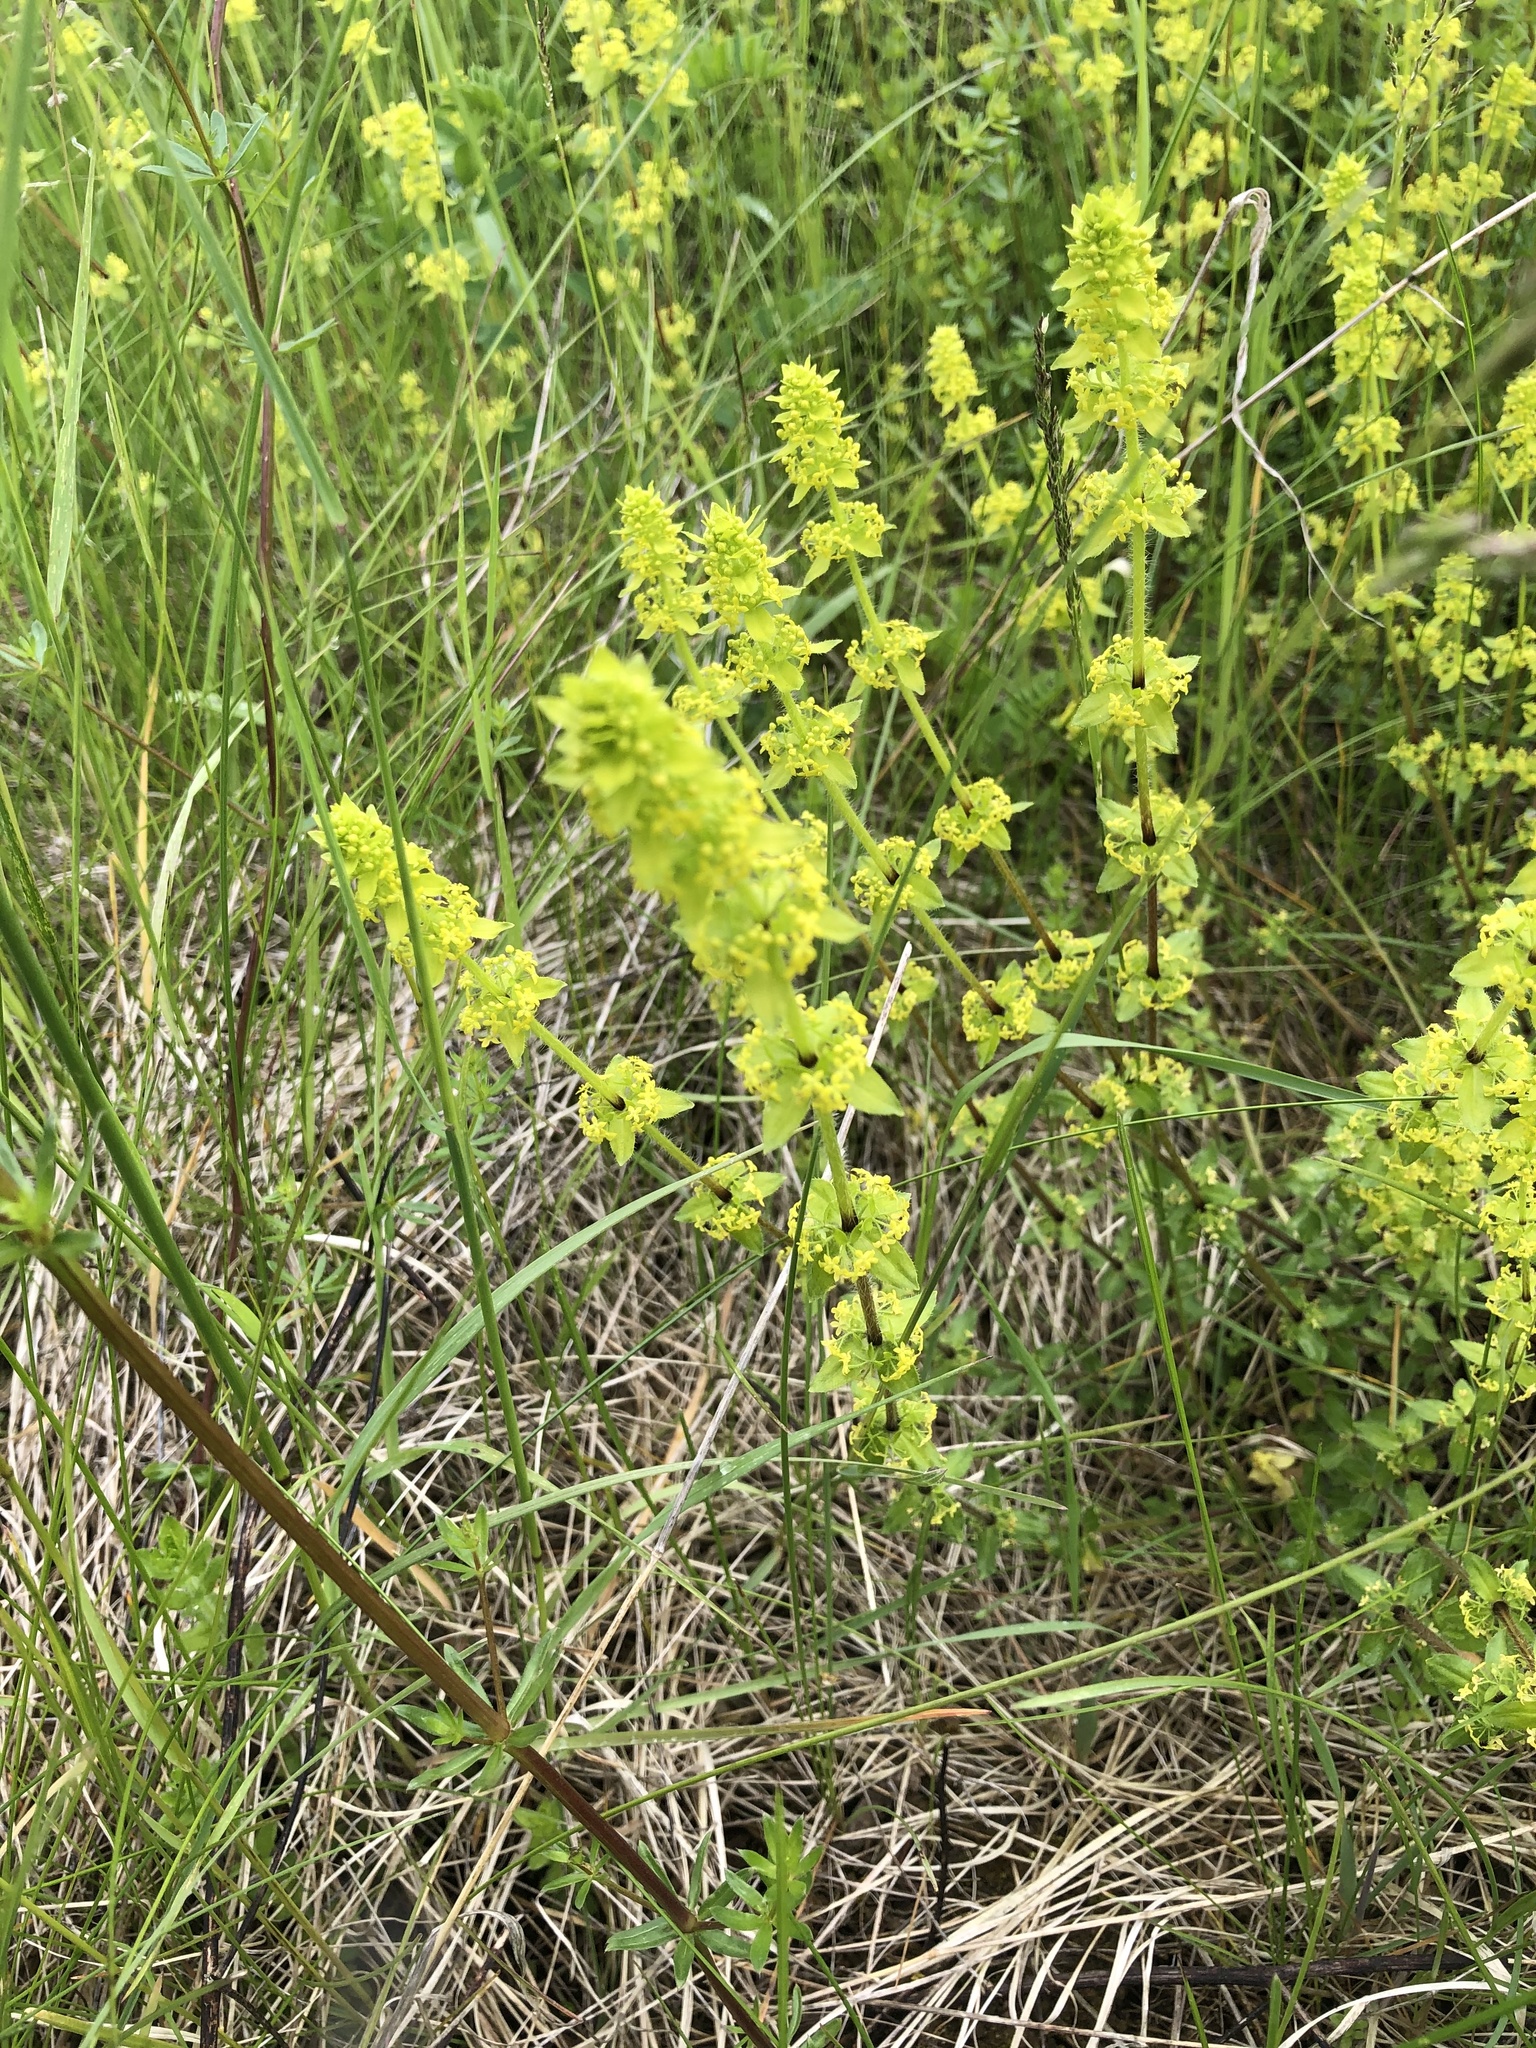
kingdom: Plantae
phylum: Tracheophyta
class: Magnoliopsida
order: Gentianales
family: Rubiaceae
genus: Cruciata
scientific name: Cruciata laevipes
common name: Crosswort
